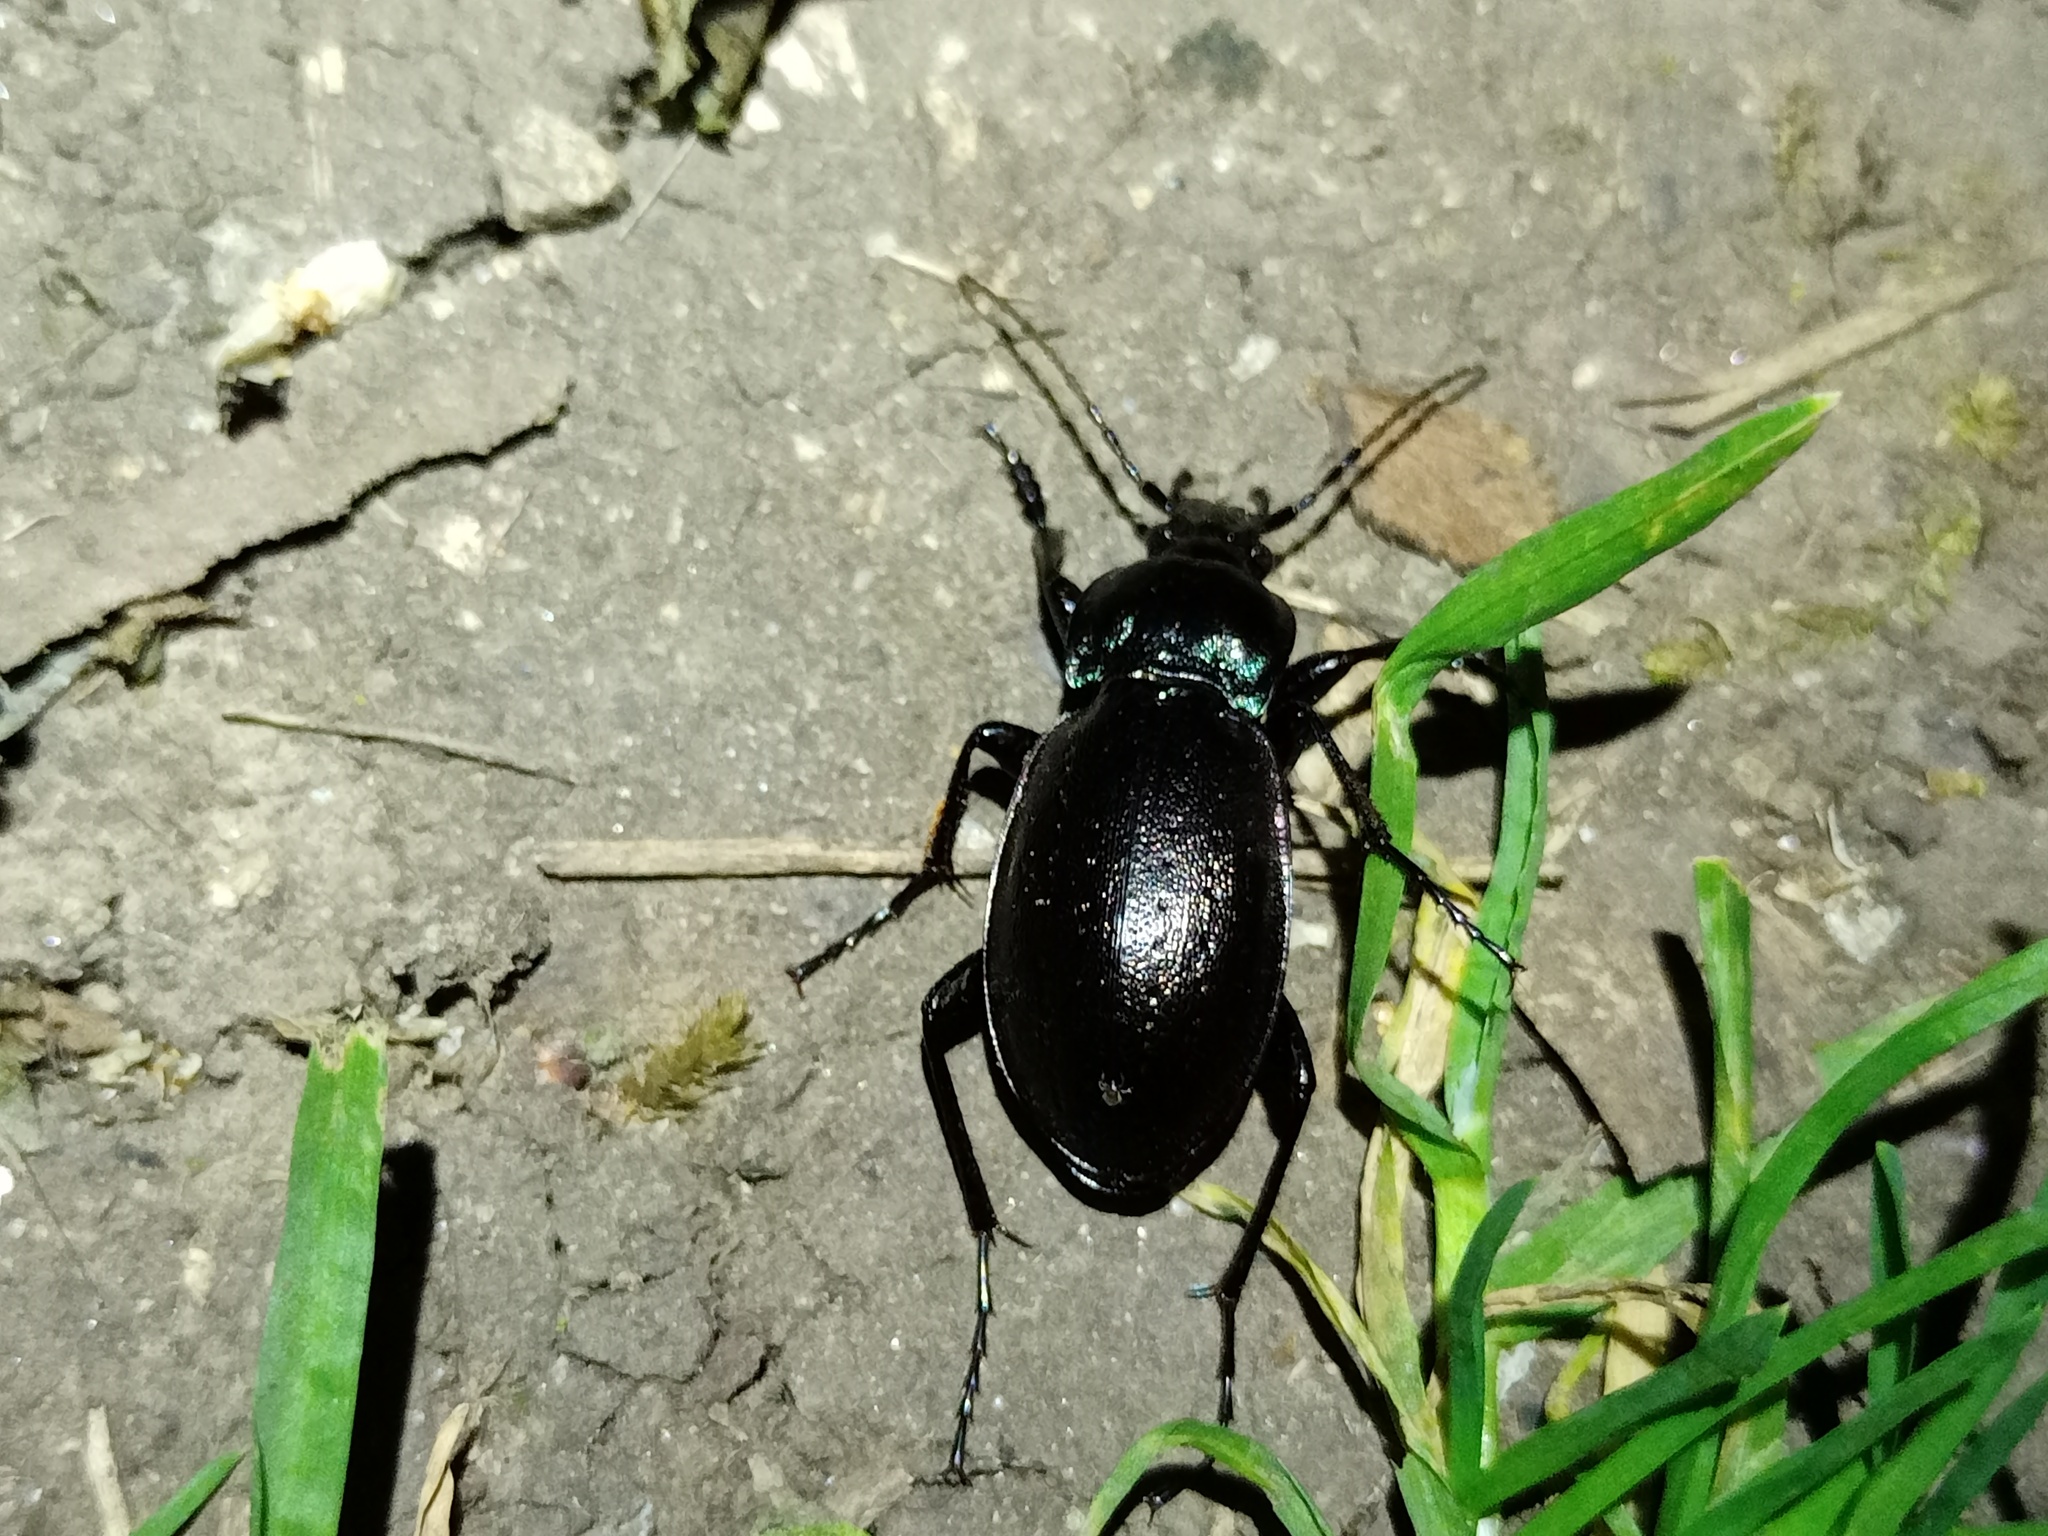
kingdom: Animalia
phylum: Arthropoda
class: Insecta
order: Coleoptera
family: Carabidae
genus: Carabus
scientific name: Carabus nemoralis
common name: European ground beetle
